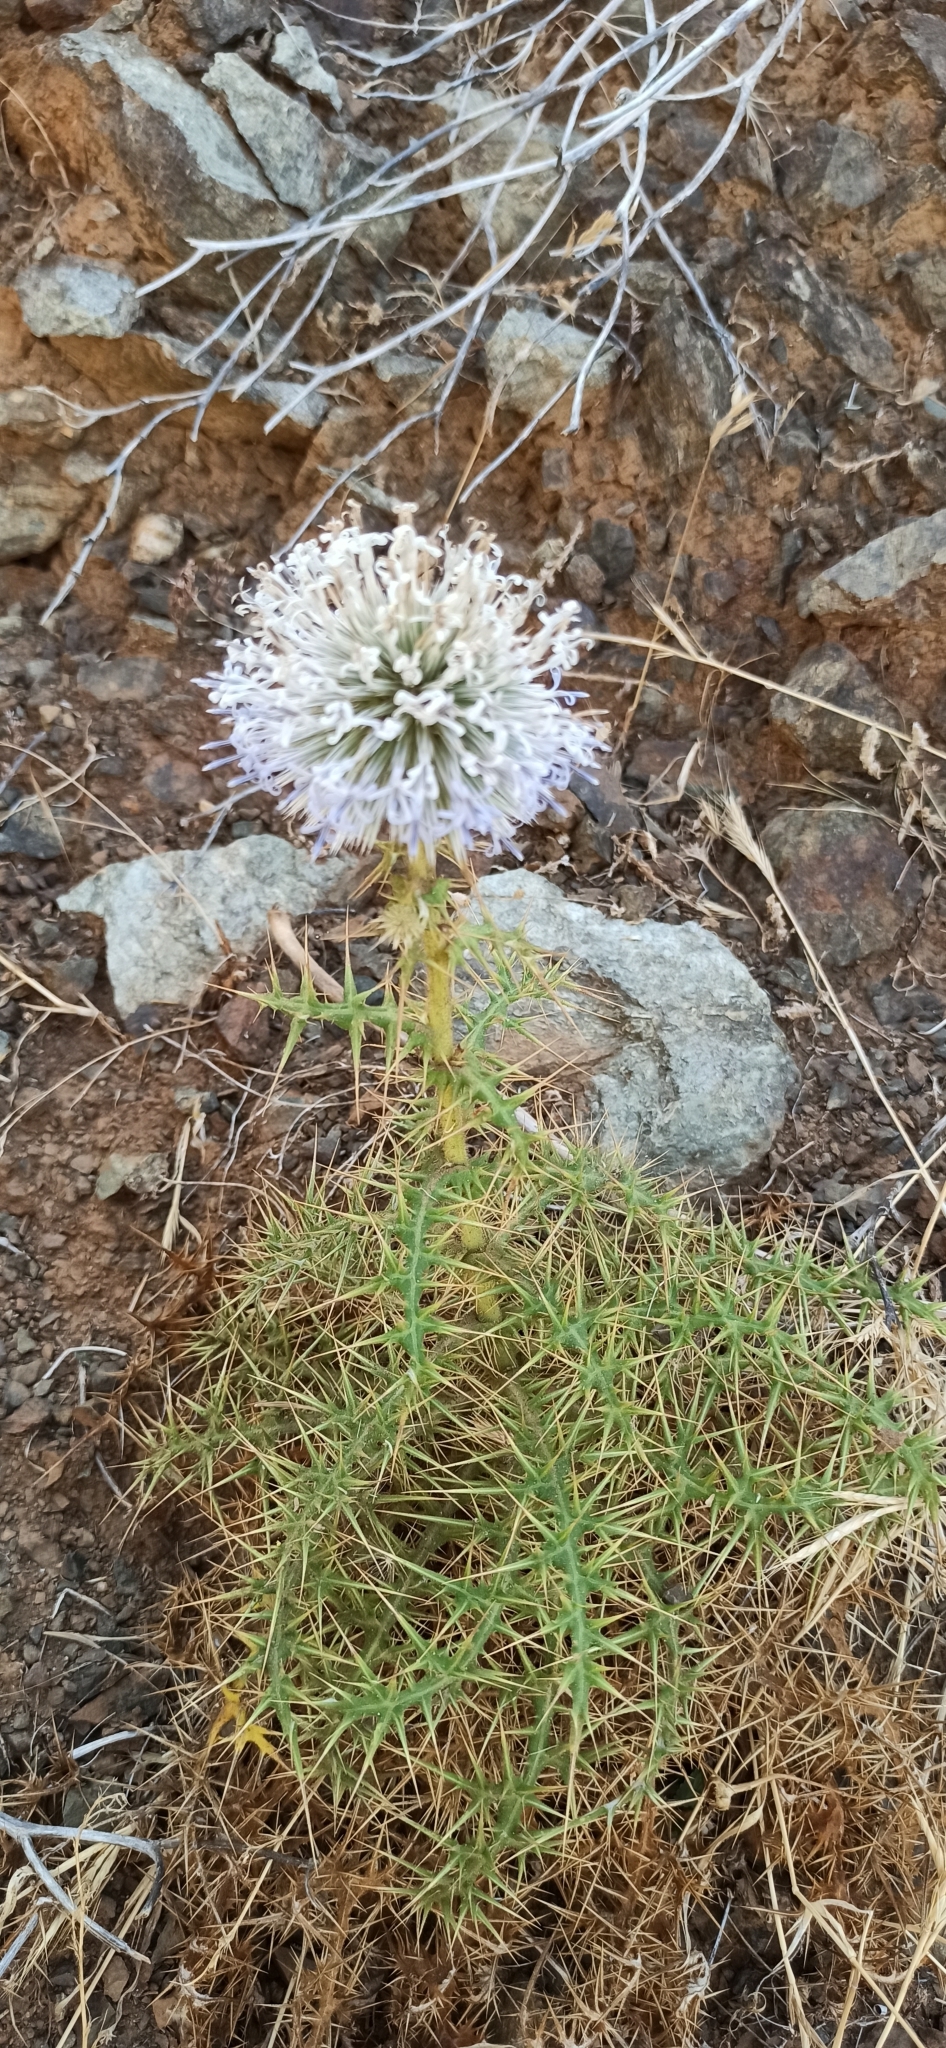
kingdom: Plantae
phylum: Tracheophyta
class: Magnoliopsida
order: Asterales
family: Asteraceae
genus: Echinops
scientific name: Echinops spinosissimus
